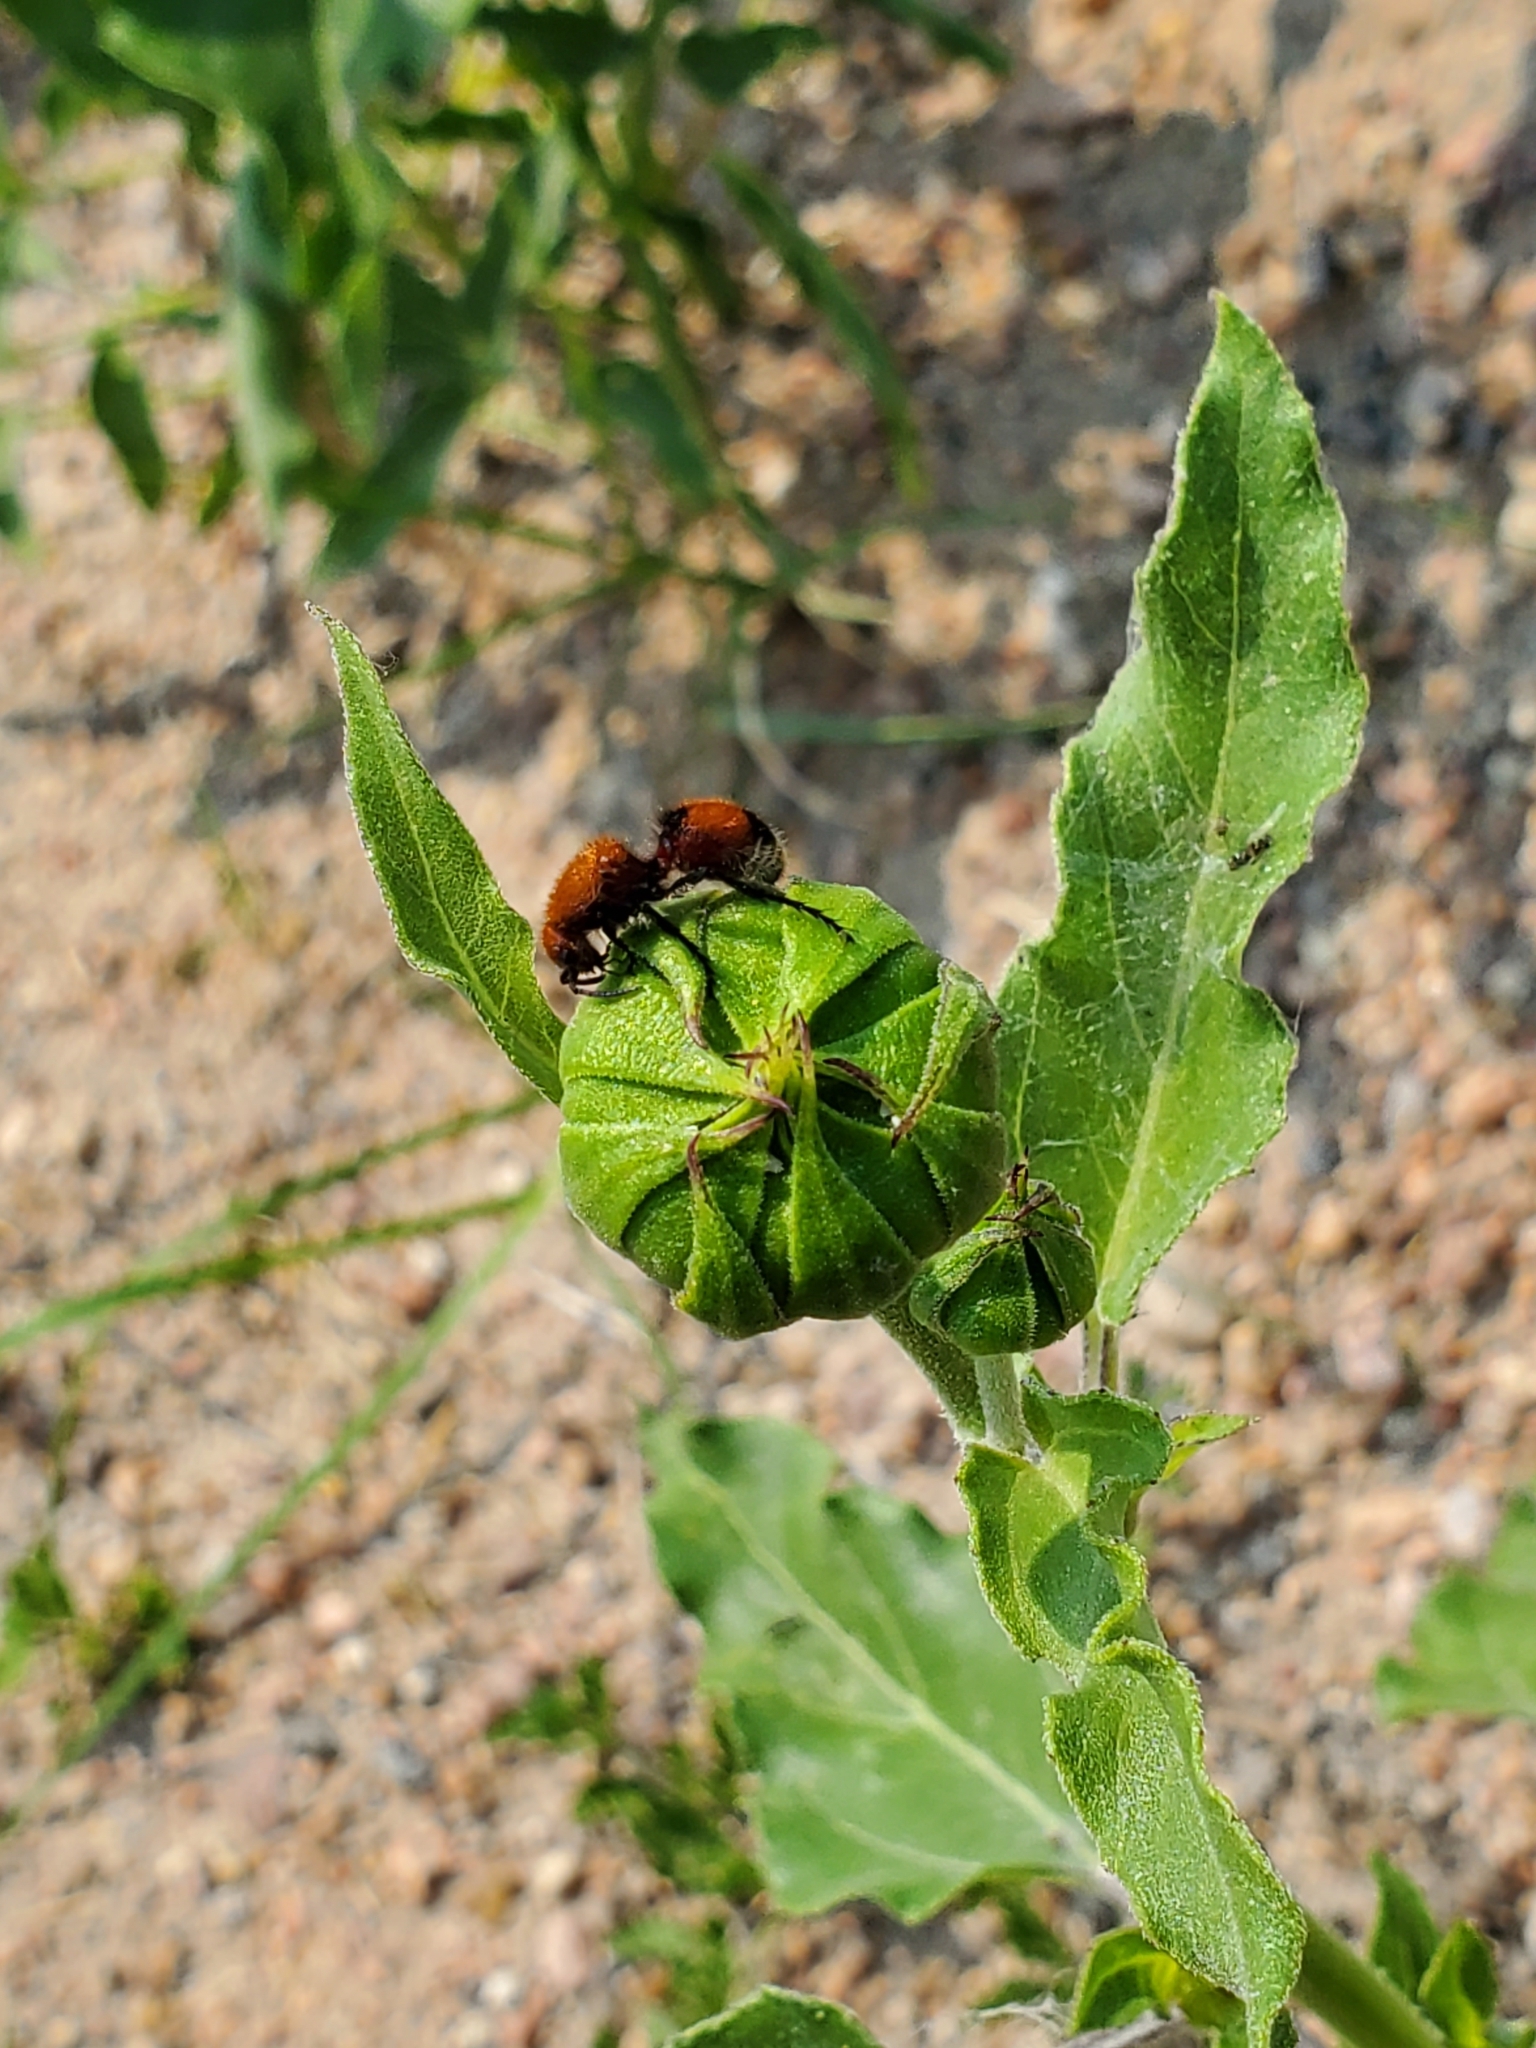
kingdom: Animalia
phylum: Arthropoda
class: Insecta
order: Hymenoptera
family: Mutillidae
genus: Dasymutilla
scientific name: Dasymutilla
